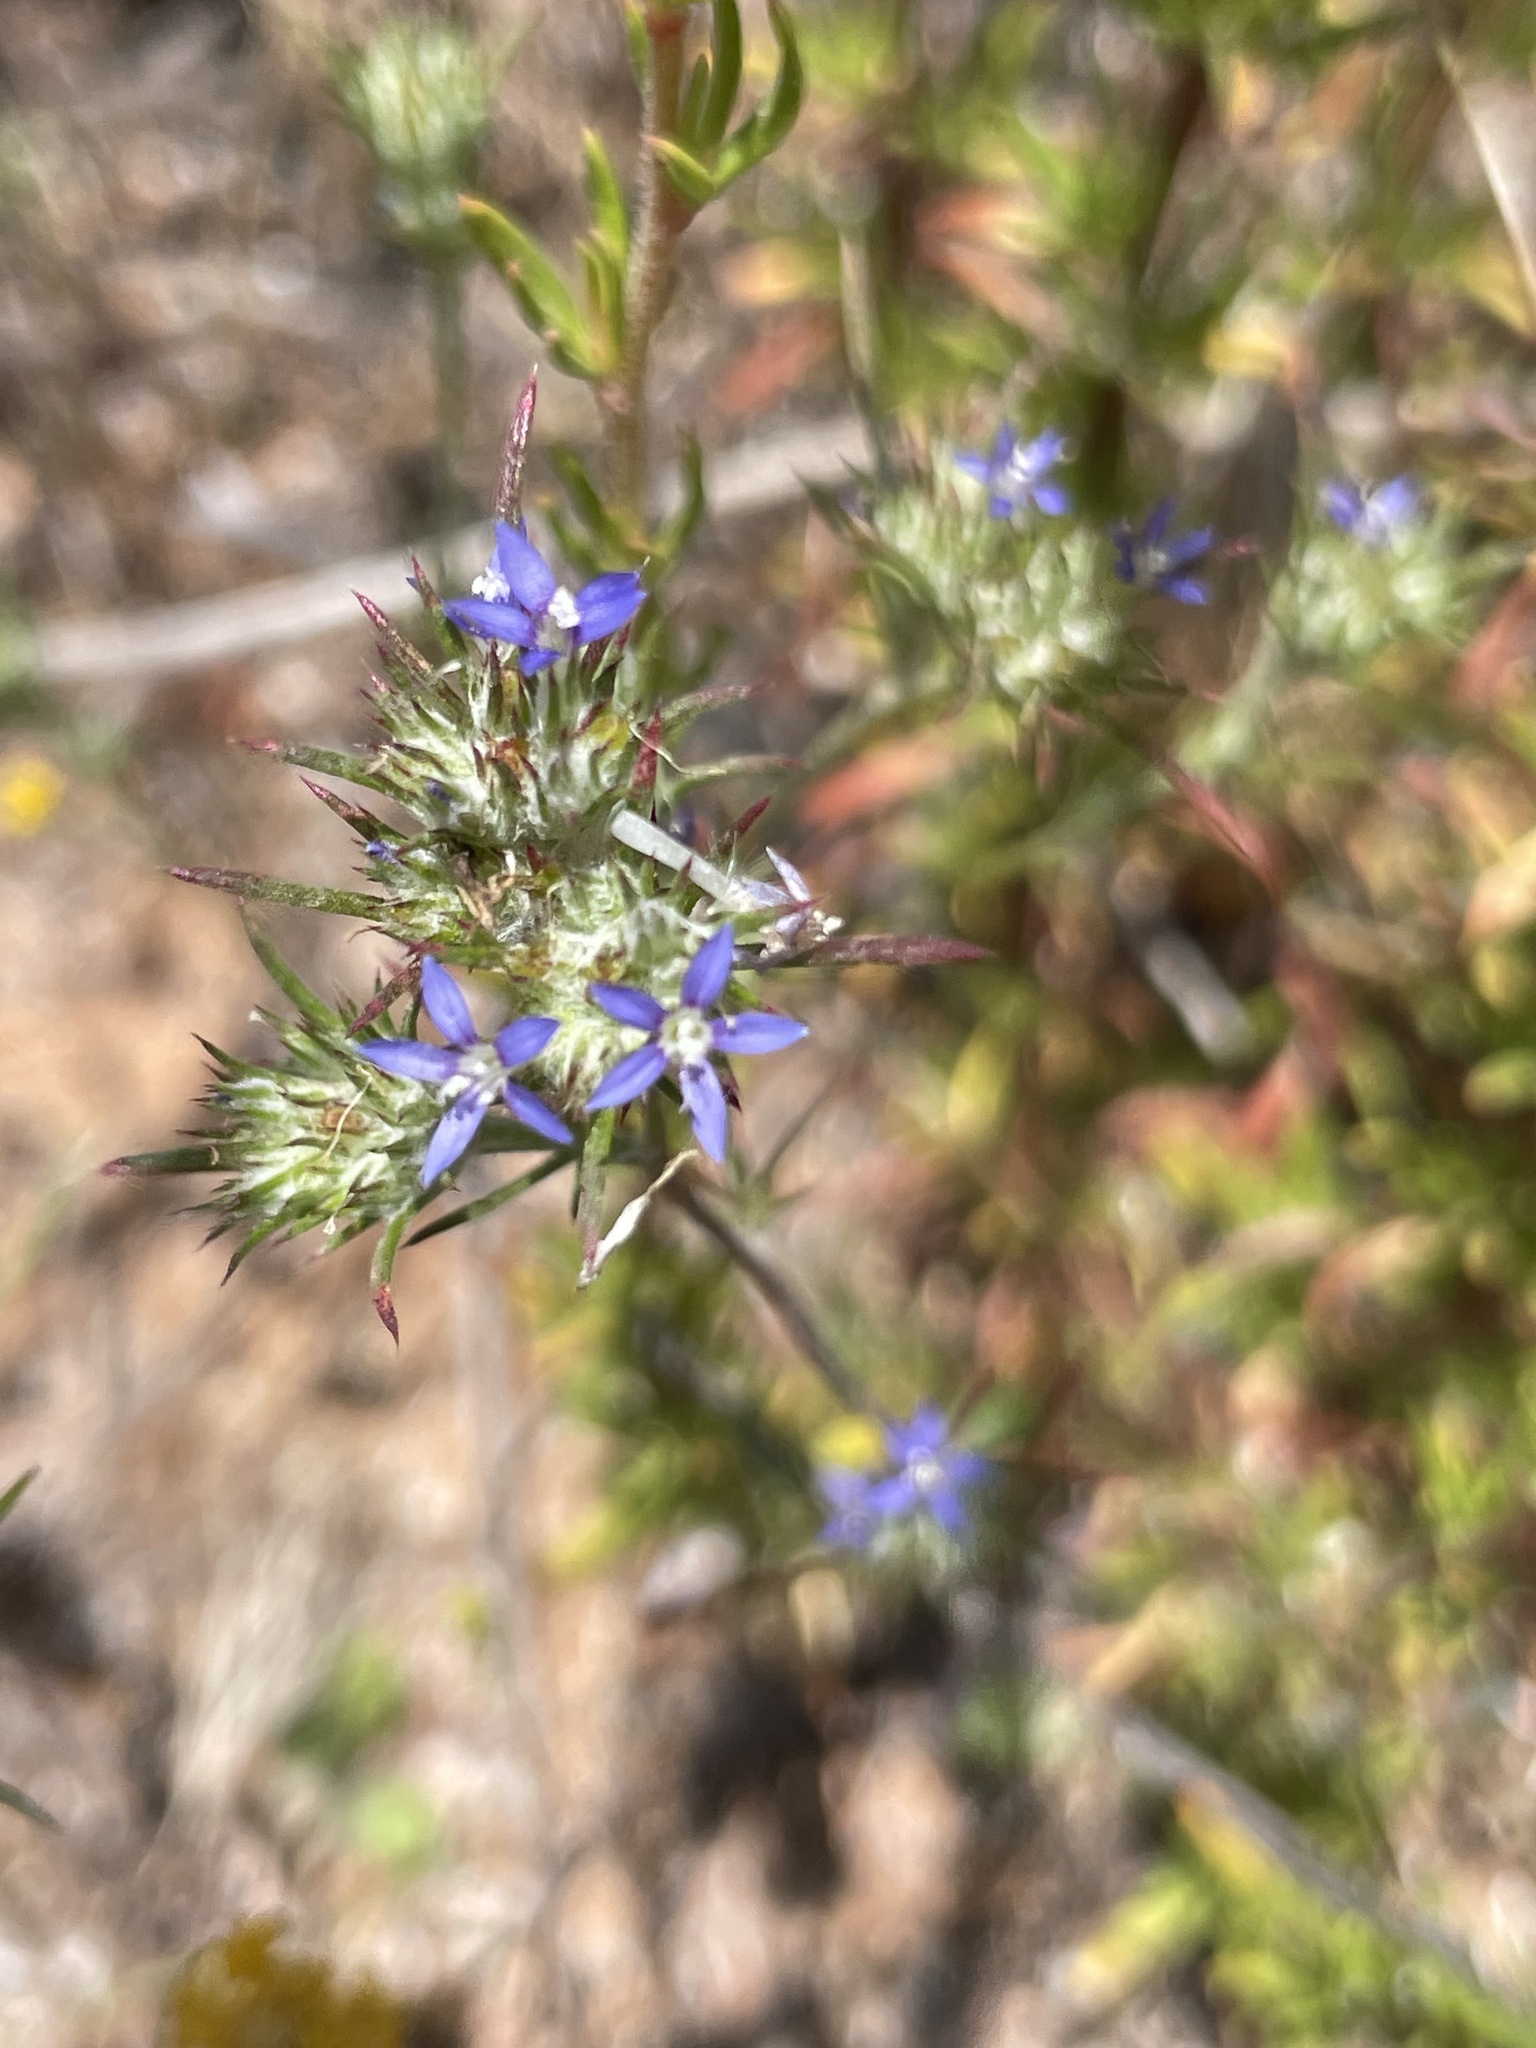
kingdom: Plantae
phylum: Tracheophyta
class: Magnoliopsida
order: Ericales
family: Polemoniaceae
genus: Eriastrum
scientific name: Eriastrum filifolium
